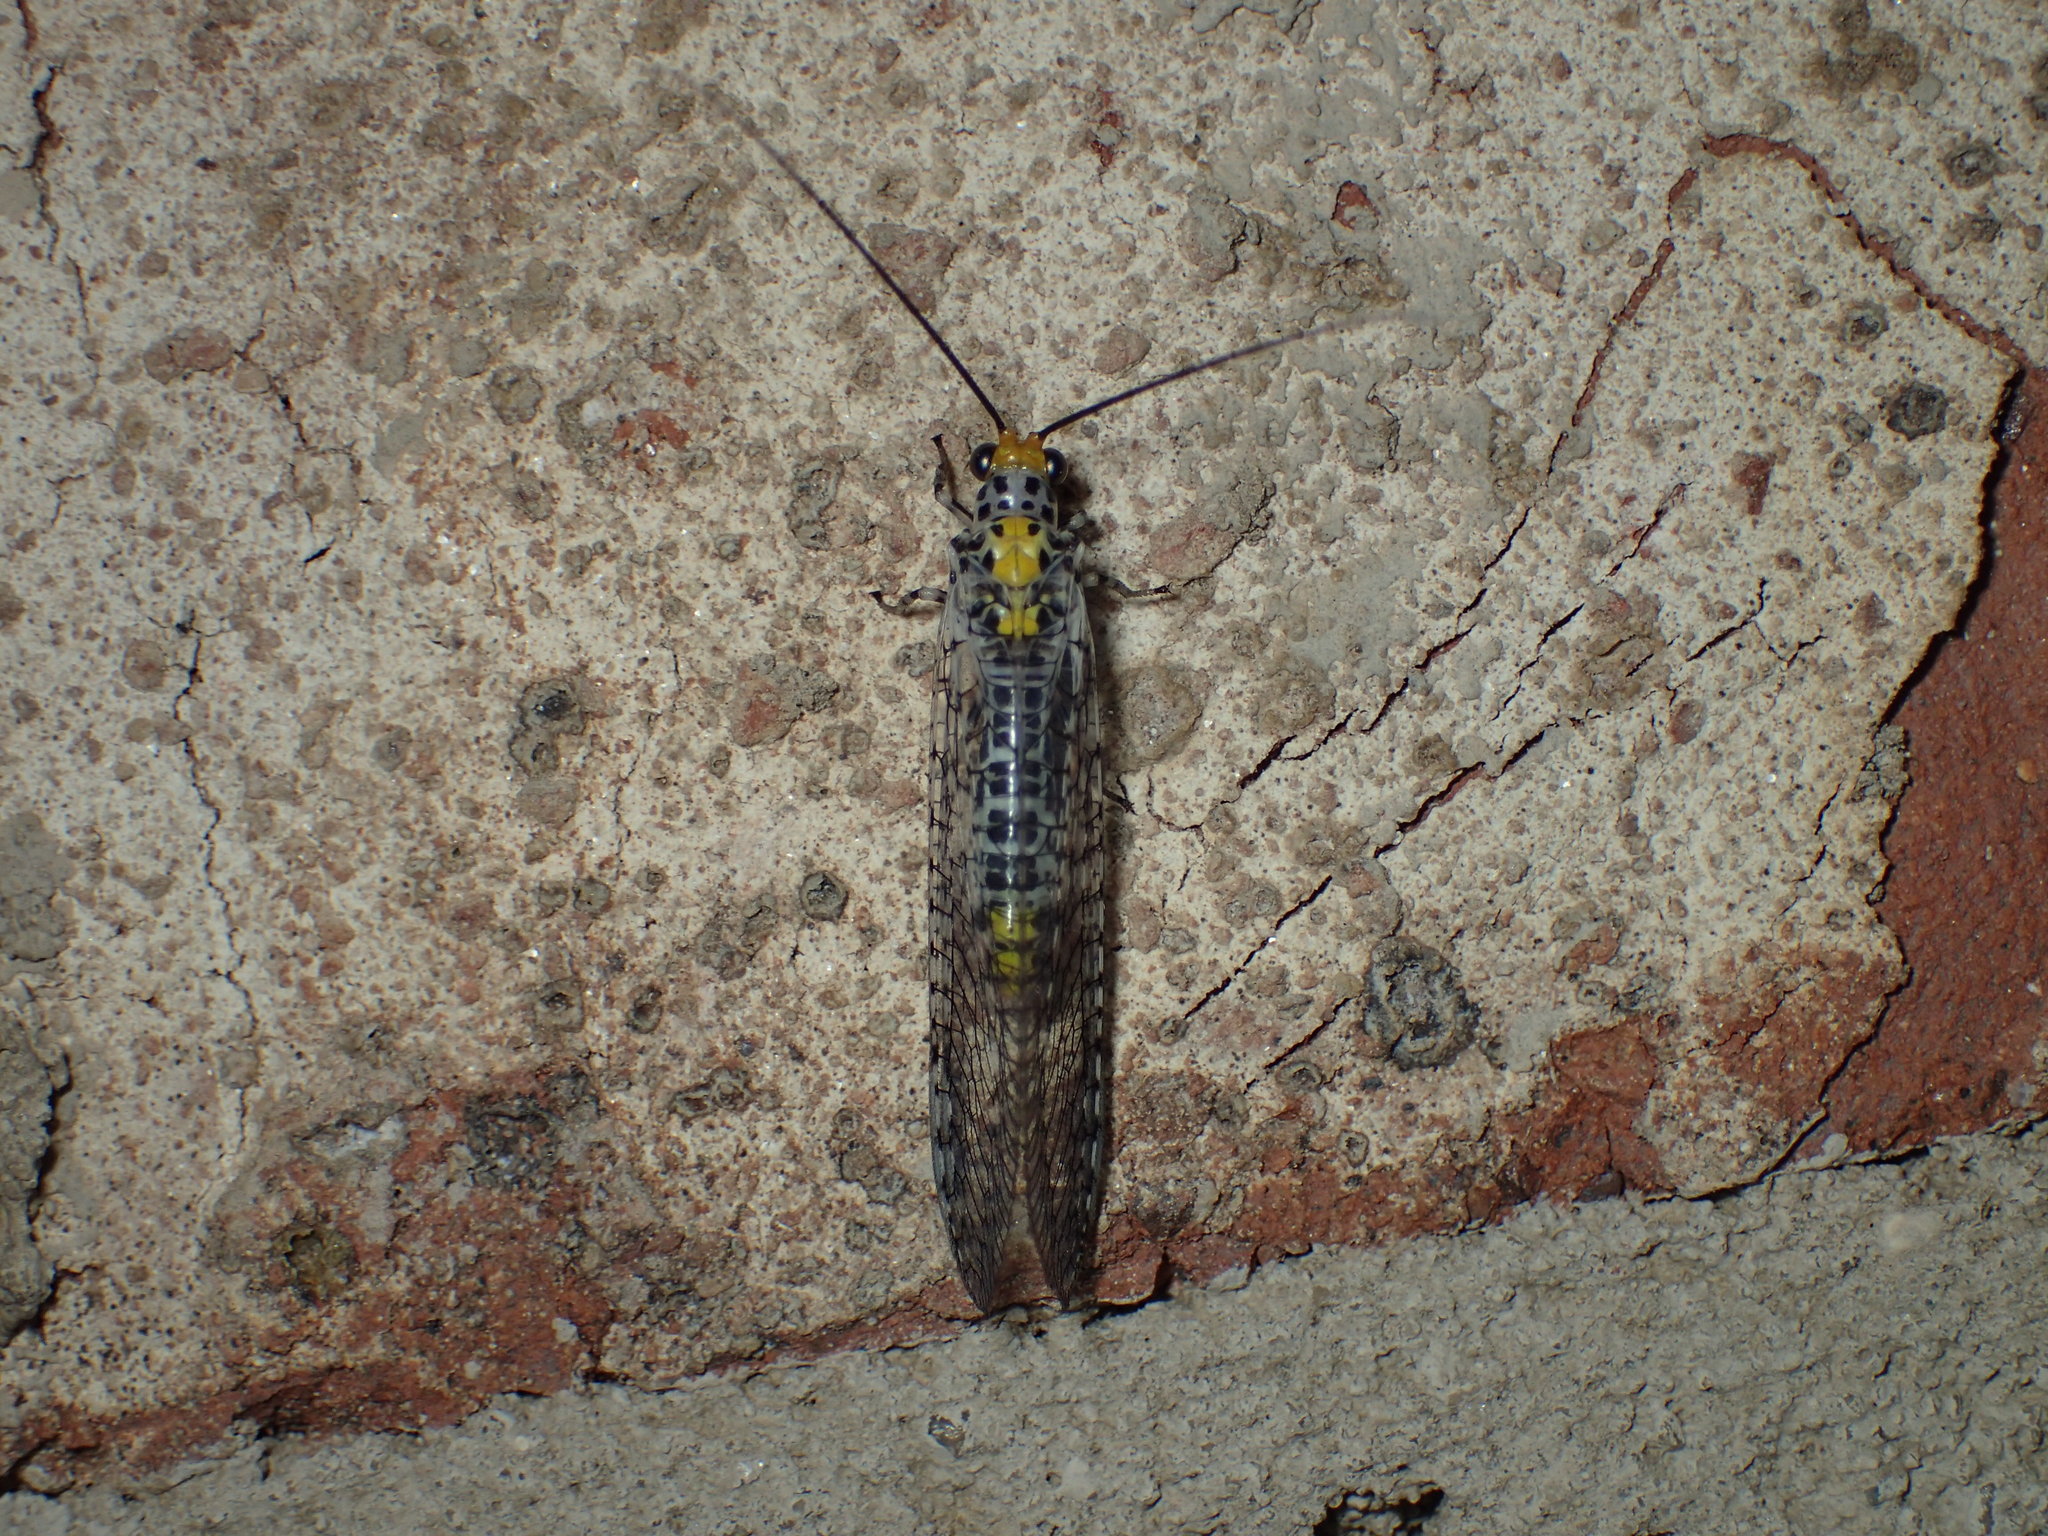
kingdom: Animalia
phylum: Arthropoda
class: Insecta
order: Neuroptera
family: Chrysopidae
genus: Abachrysa
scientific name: Abachrysa eureka
